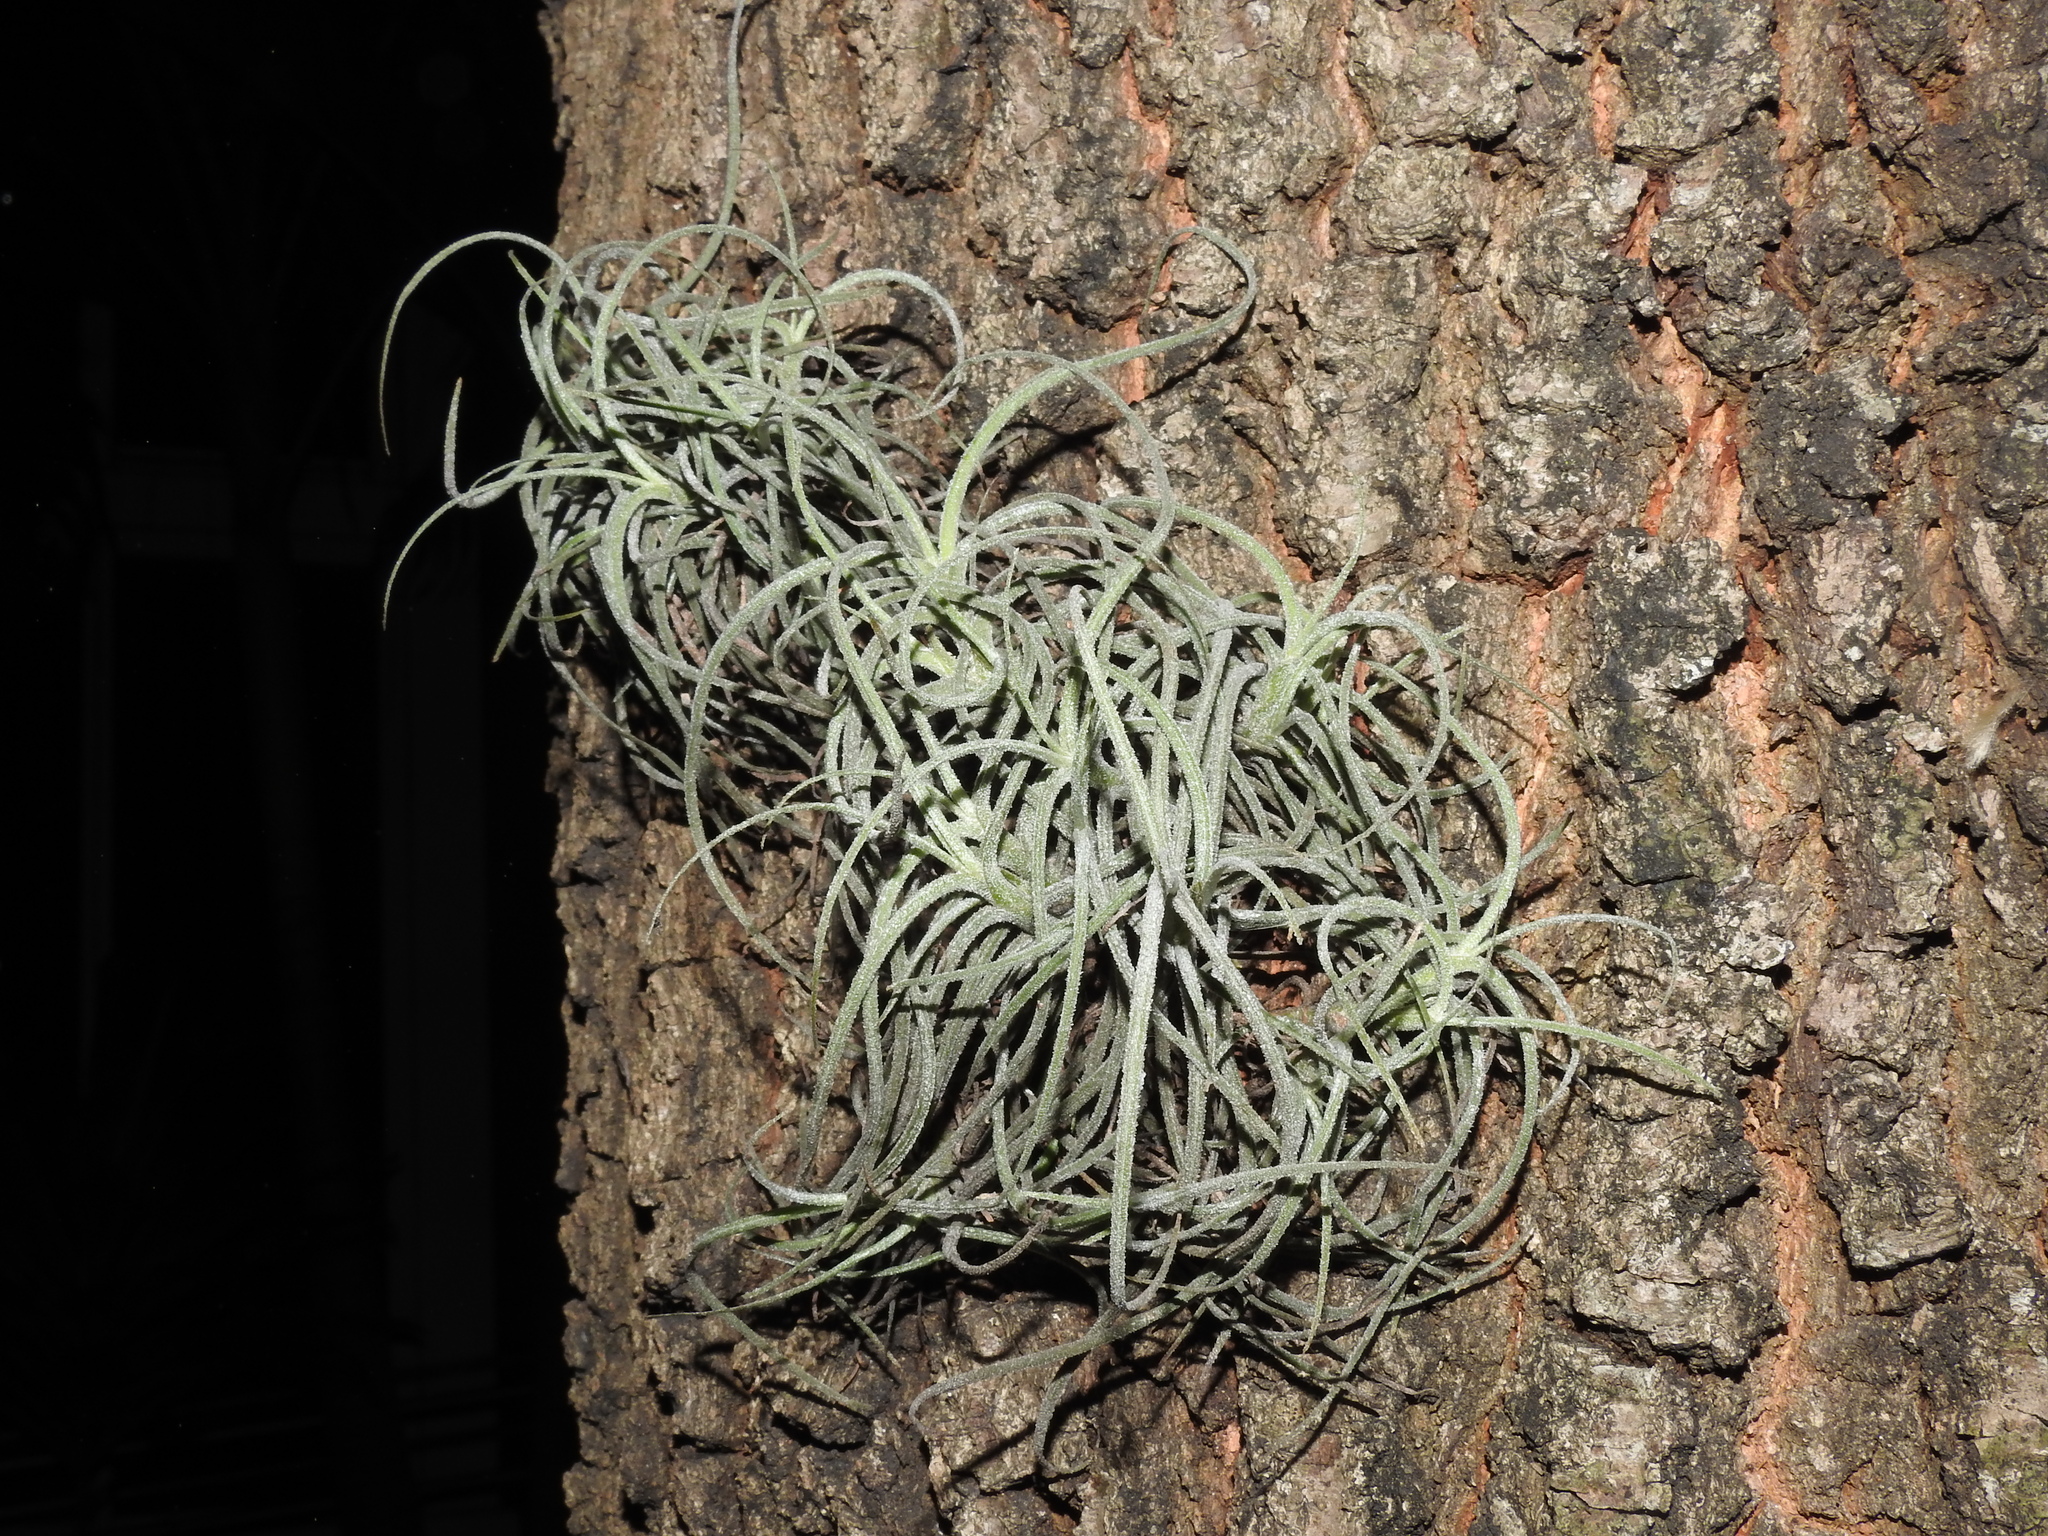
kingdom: Plantae
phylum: Tracheophyta
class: Liliopsida
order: Poales
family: Bromeliaceae
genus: Tillandsia
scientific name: Tillandsia recurvata
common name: Small ballmoss
